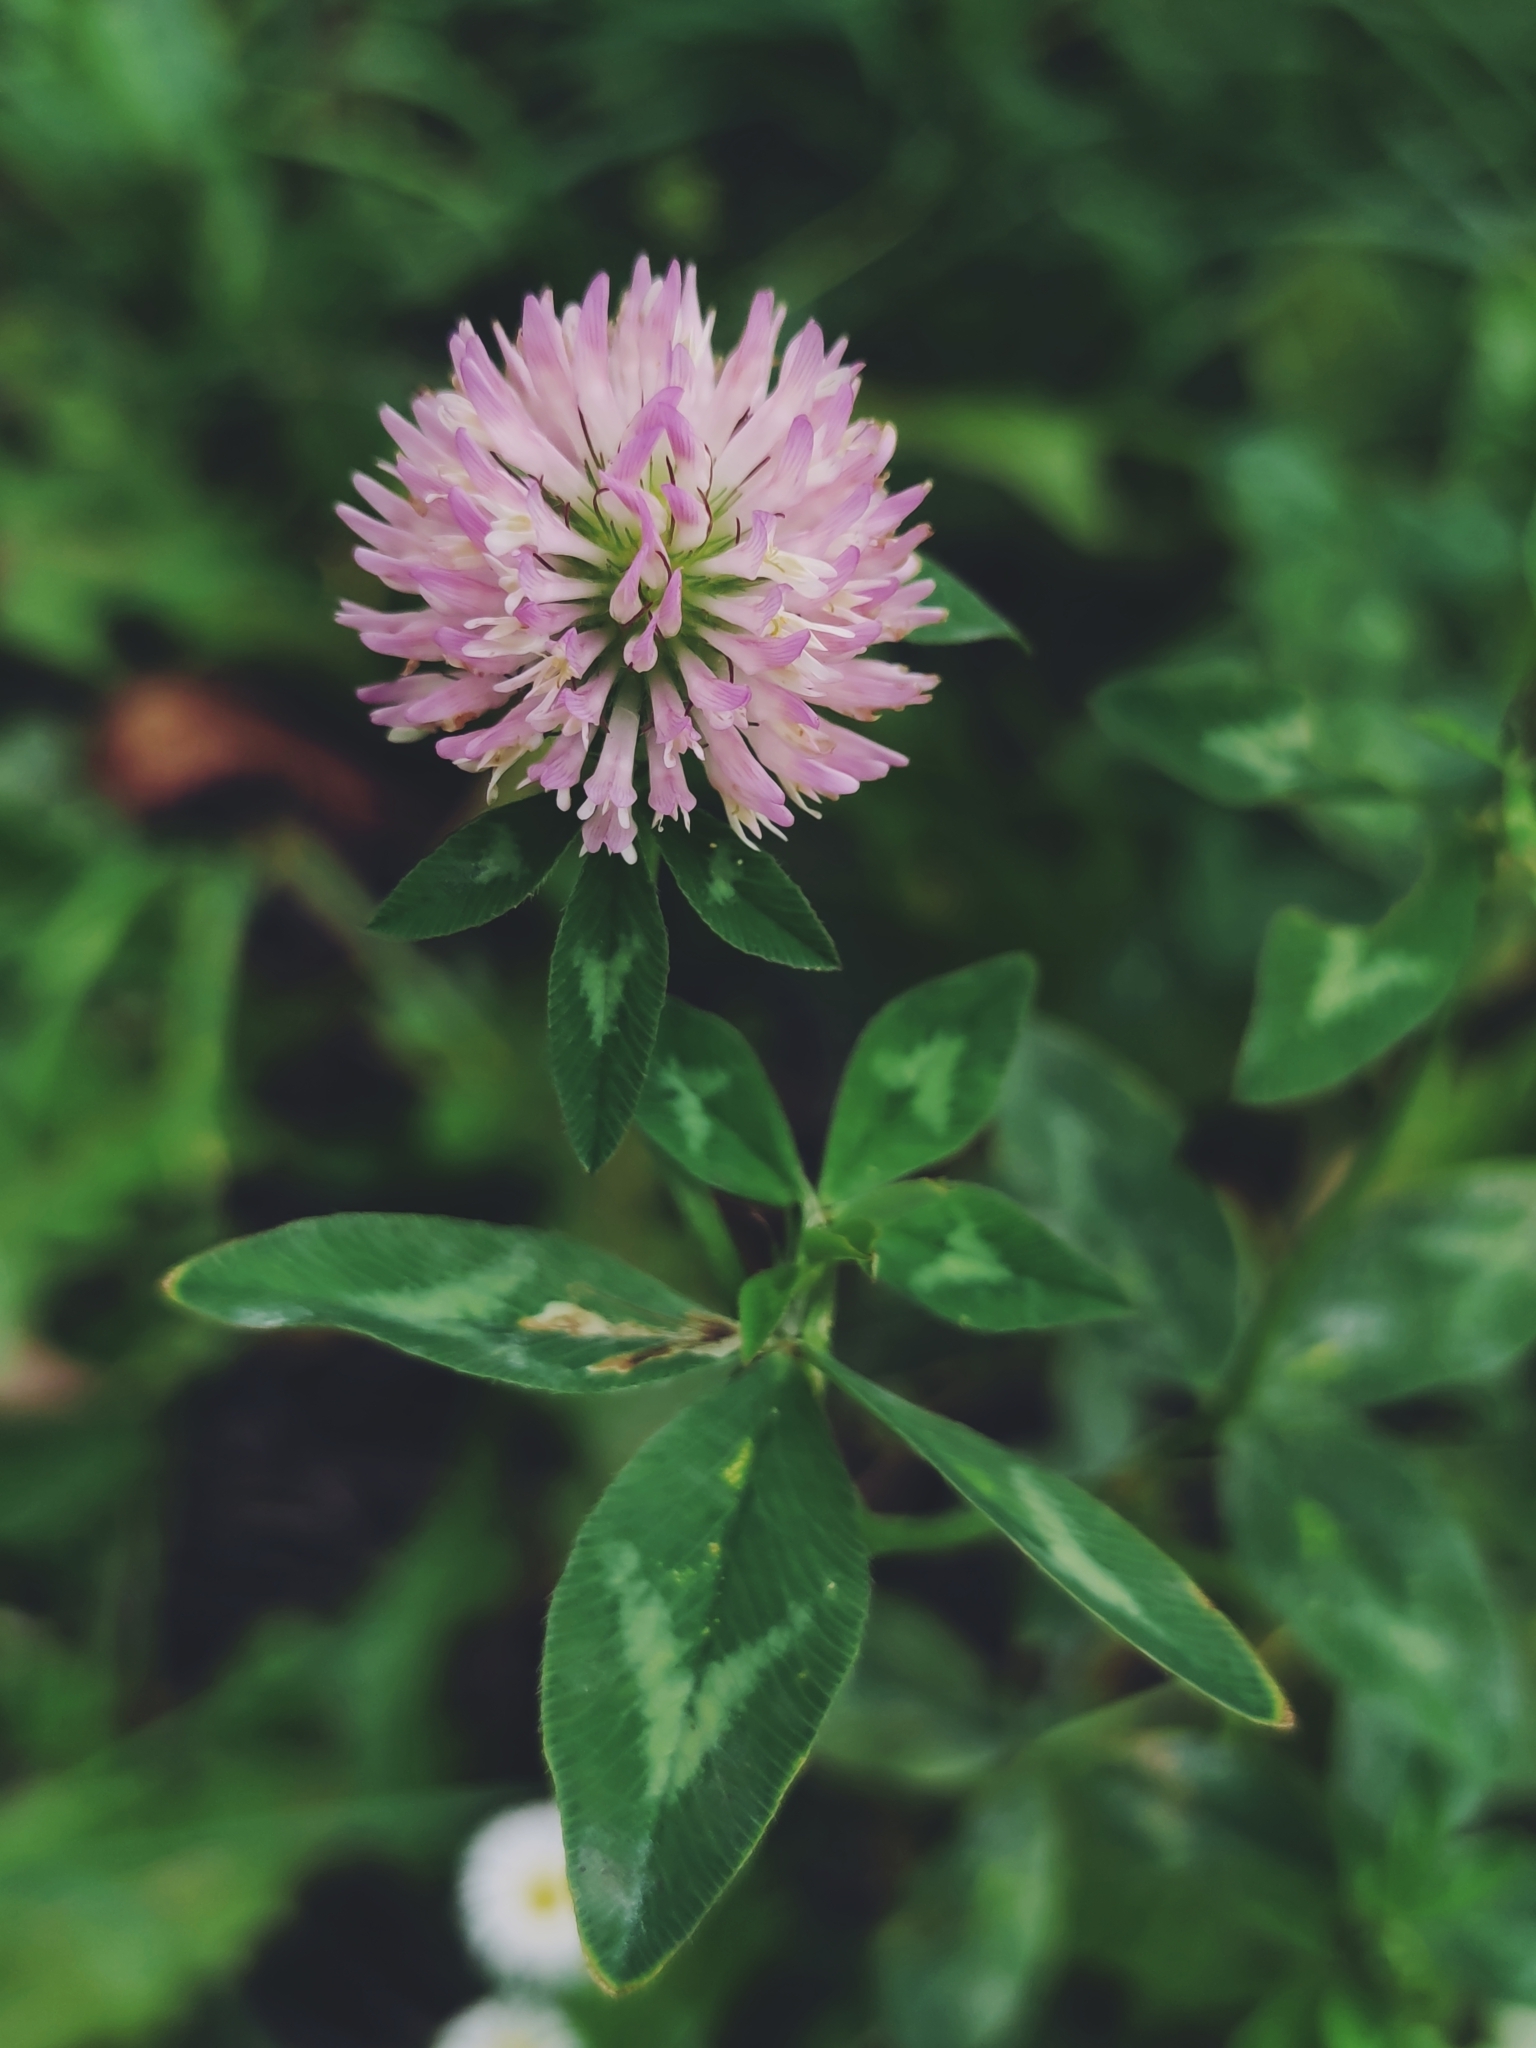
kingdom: Plantae
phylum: Tracheophyta
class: Magnoliopsida
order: Fabales
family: Fabaceae
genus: Trifolium
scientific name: Trifolium pratense
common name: Red clover
